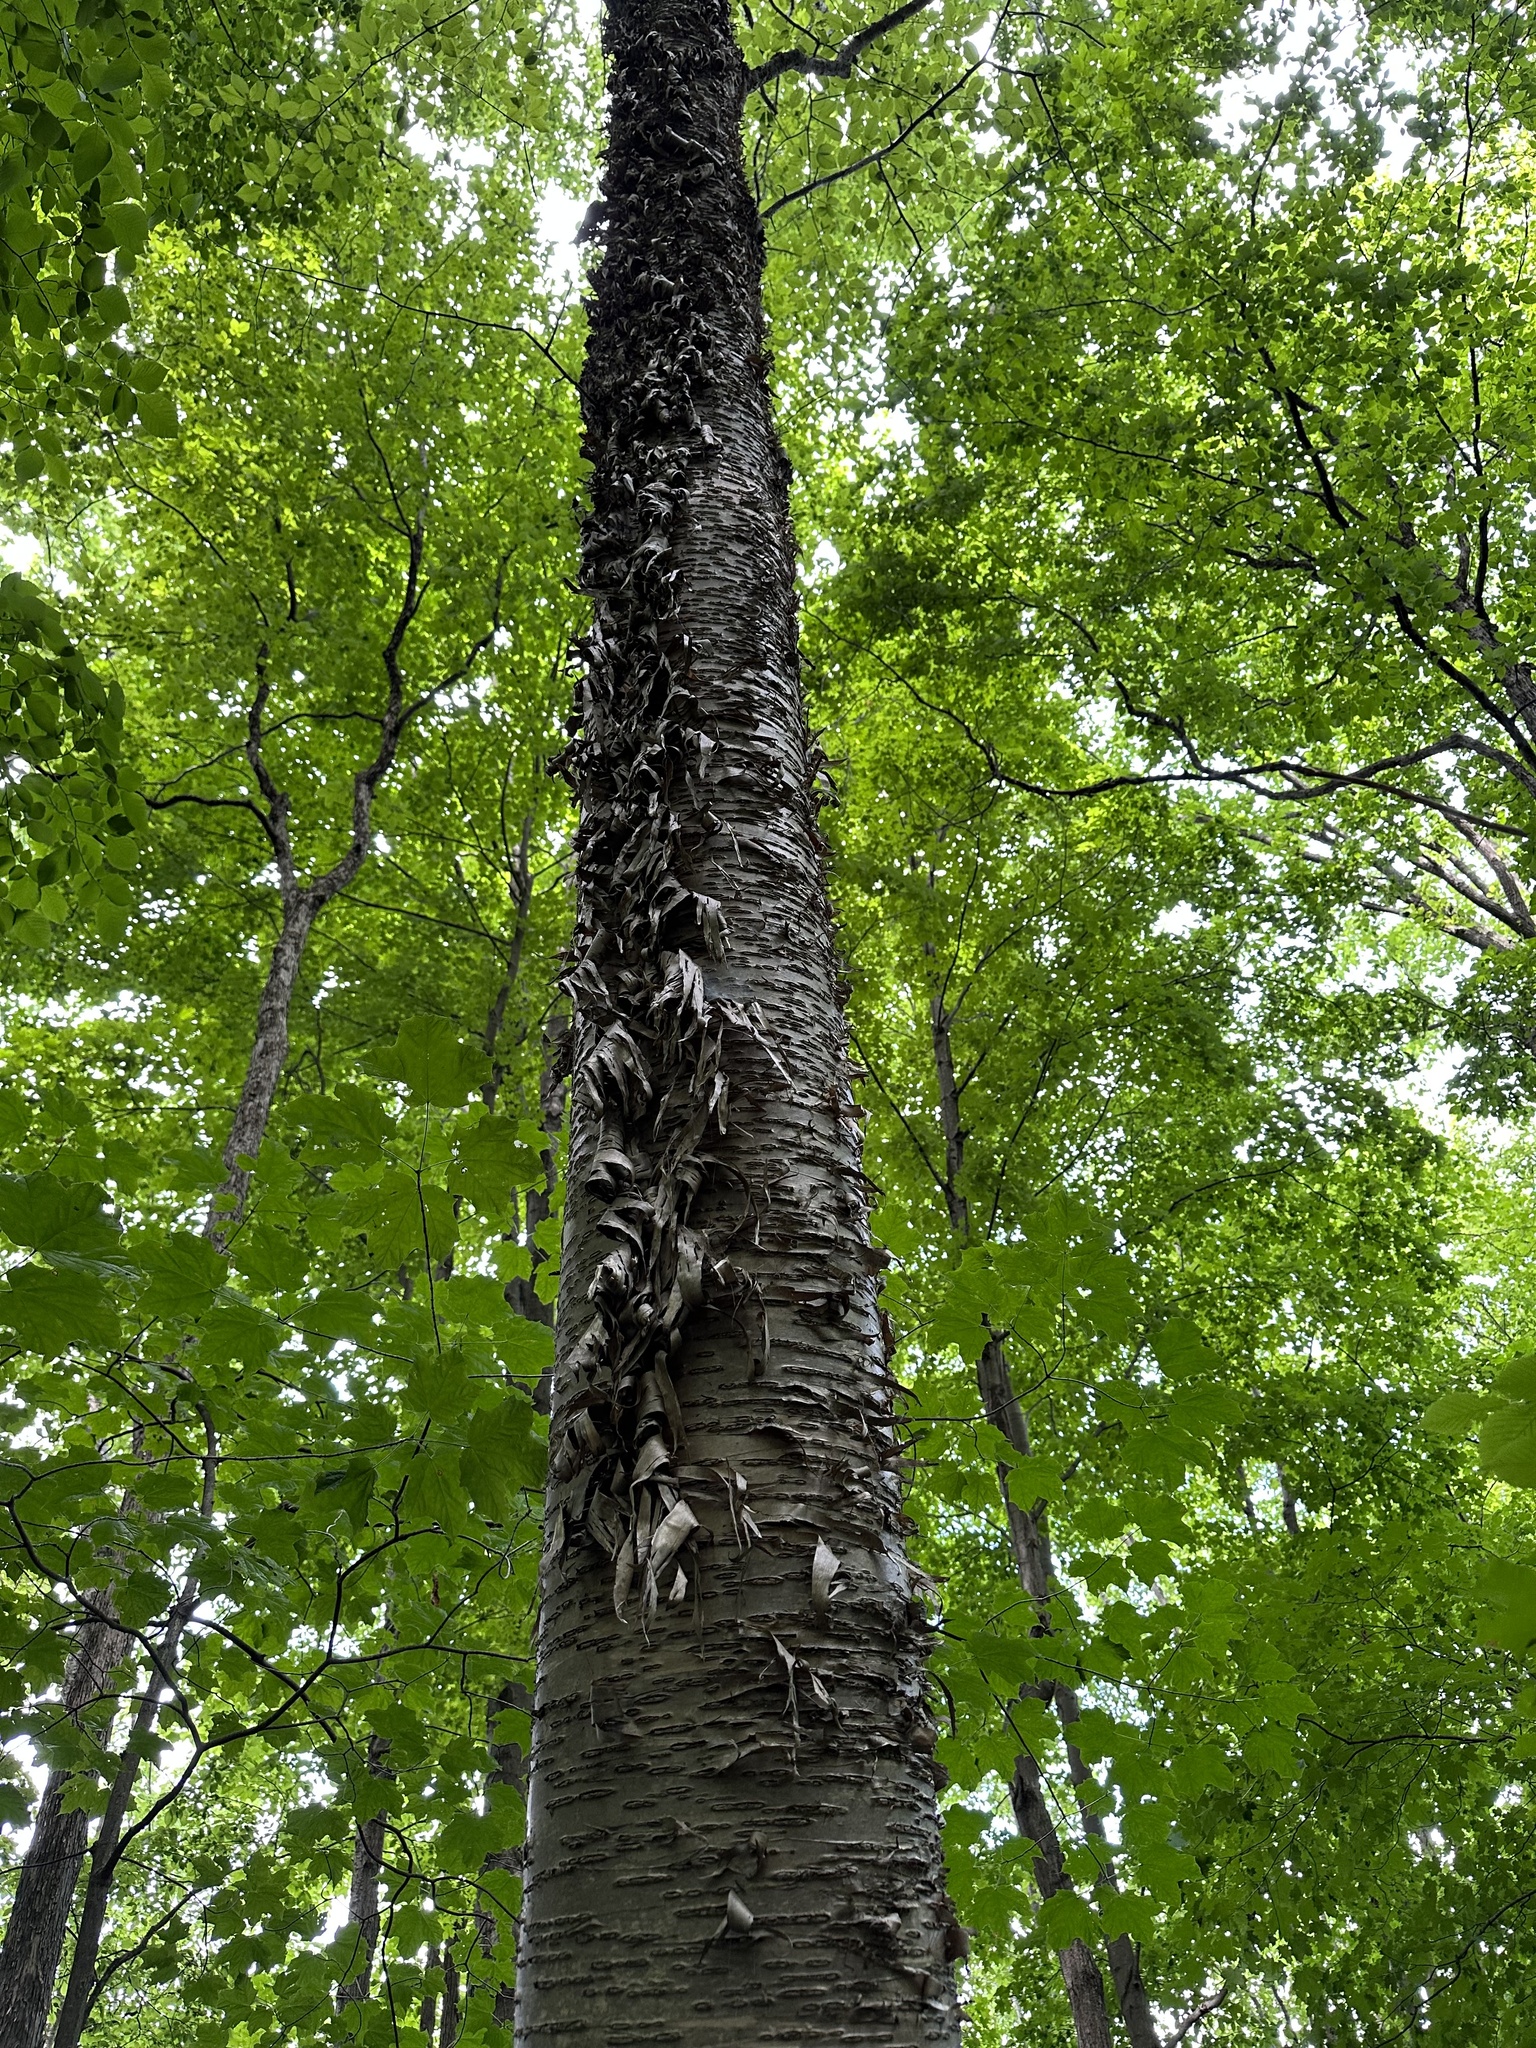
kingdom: Plantae
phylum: Tracheophyta
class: Magnoliopsida
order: Fagales
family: Betulaceae
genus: Betula
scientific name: Betula alleghaniensis
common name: Yellow birch
